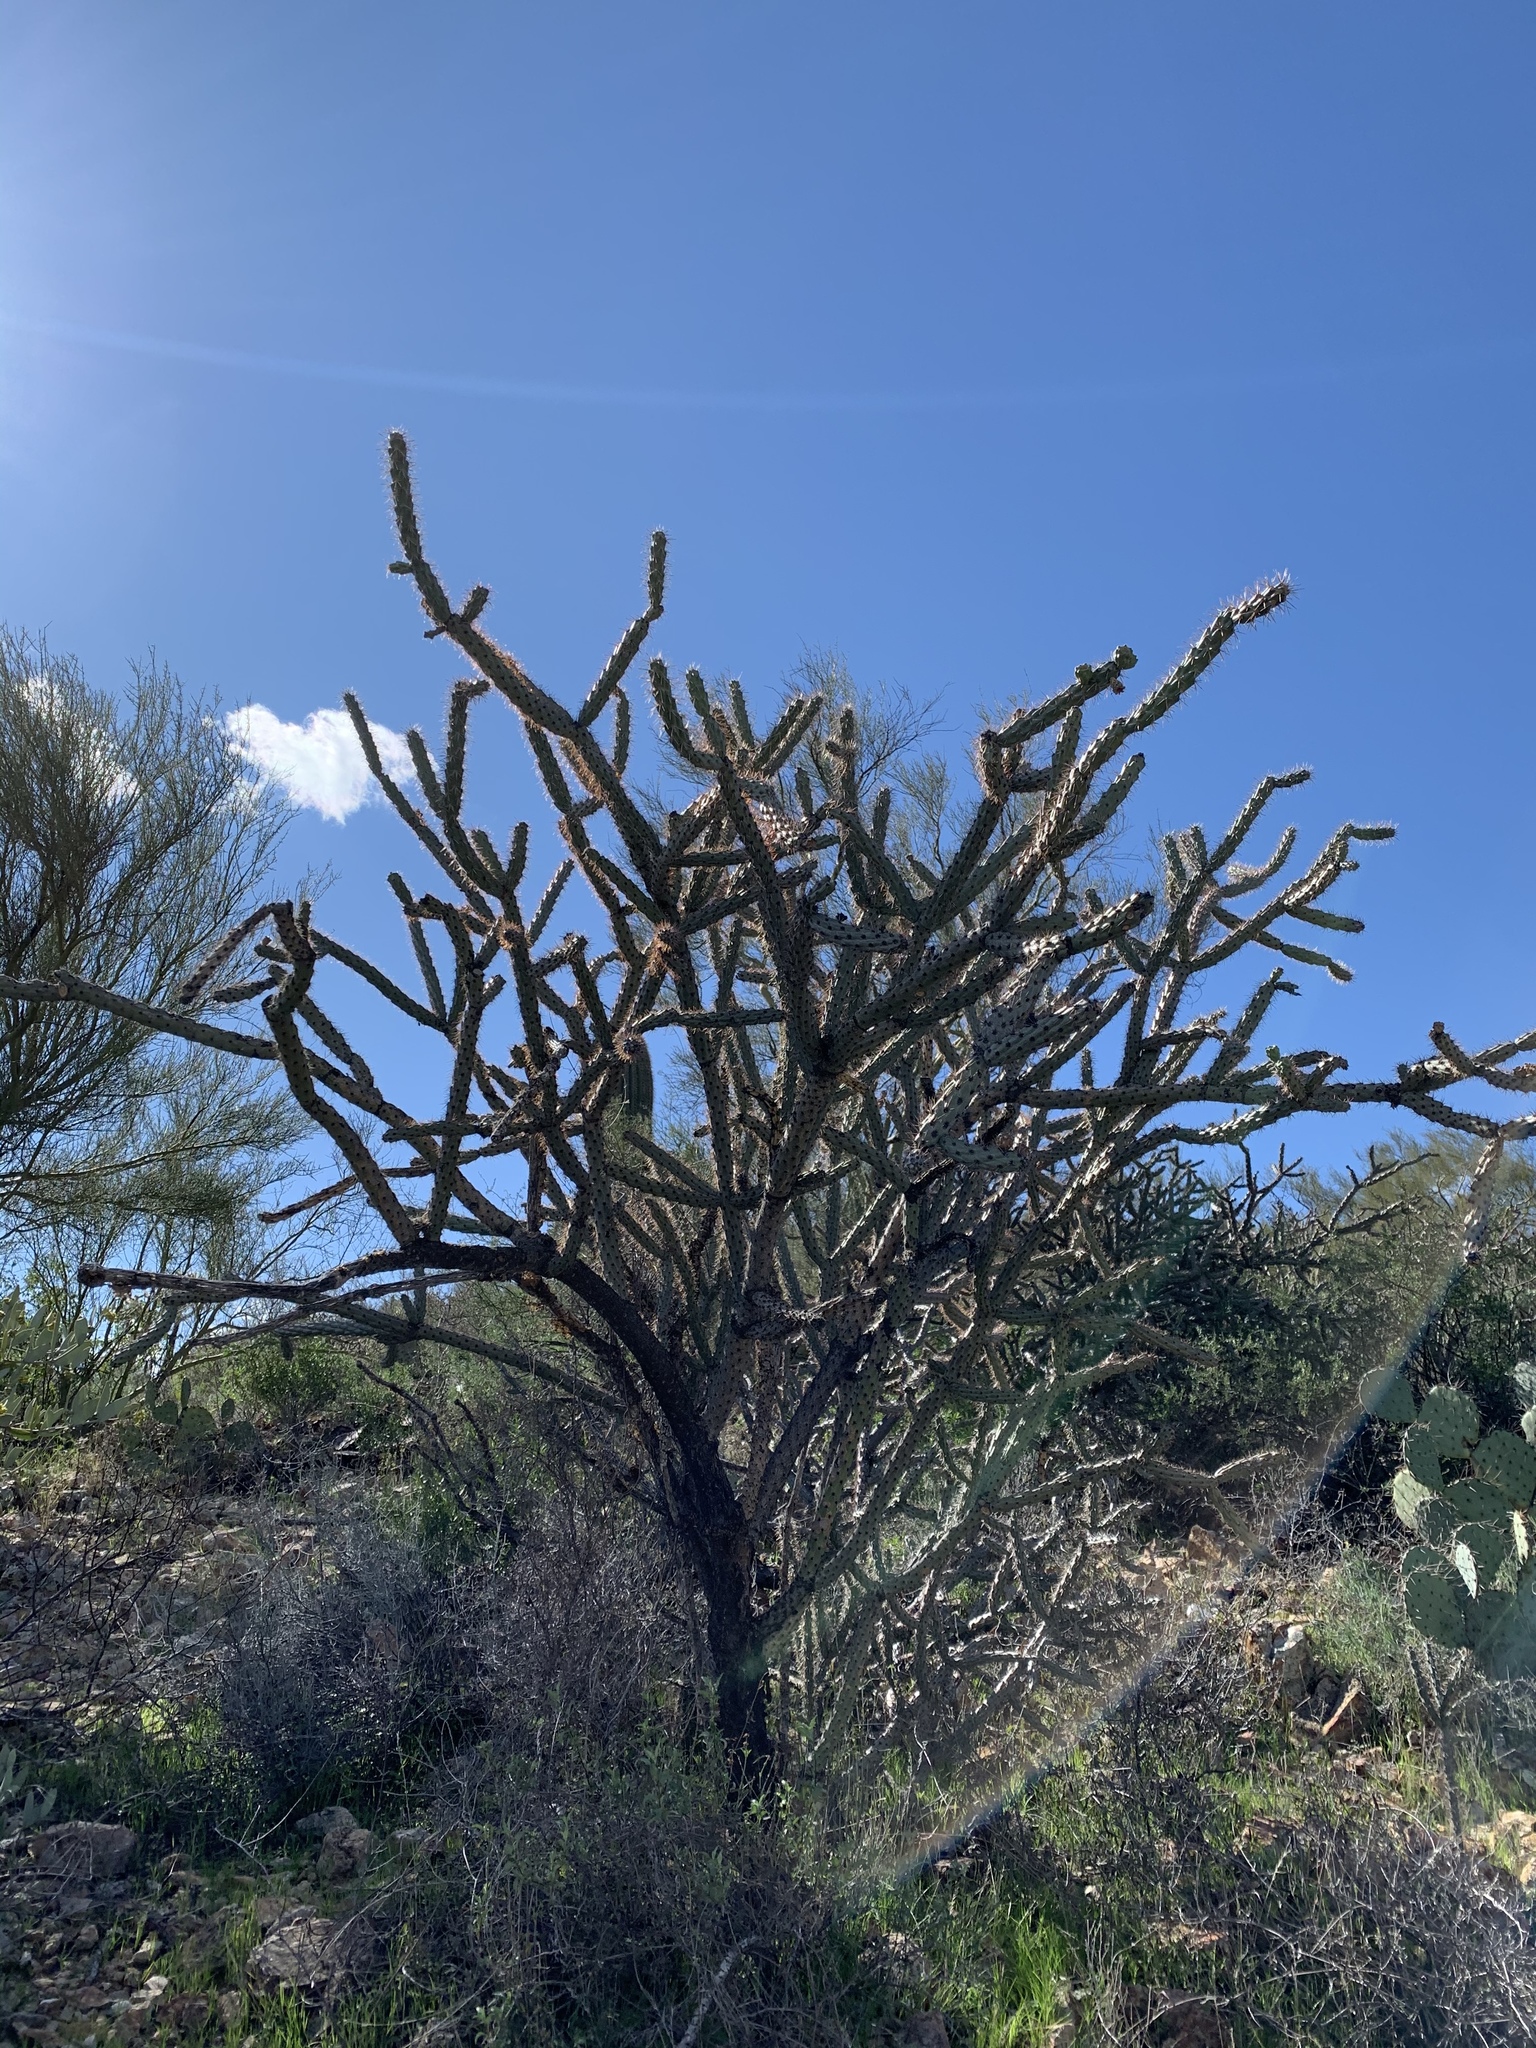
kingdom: Plantae
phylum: Tracheophyta
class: Magnoliopsida
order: Caryophyllales
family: Cactaceae
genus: Cylindropuntia
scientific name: Cylindropuntia acanthocarpa
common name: Buckhorn cholla
